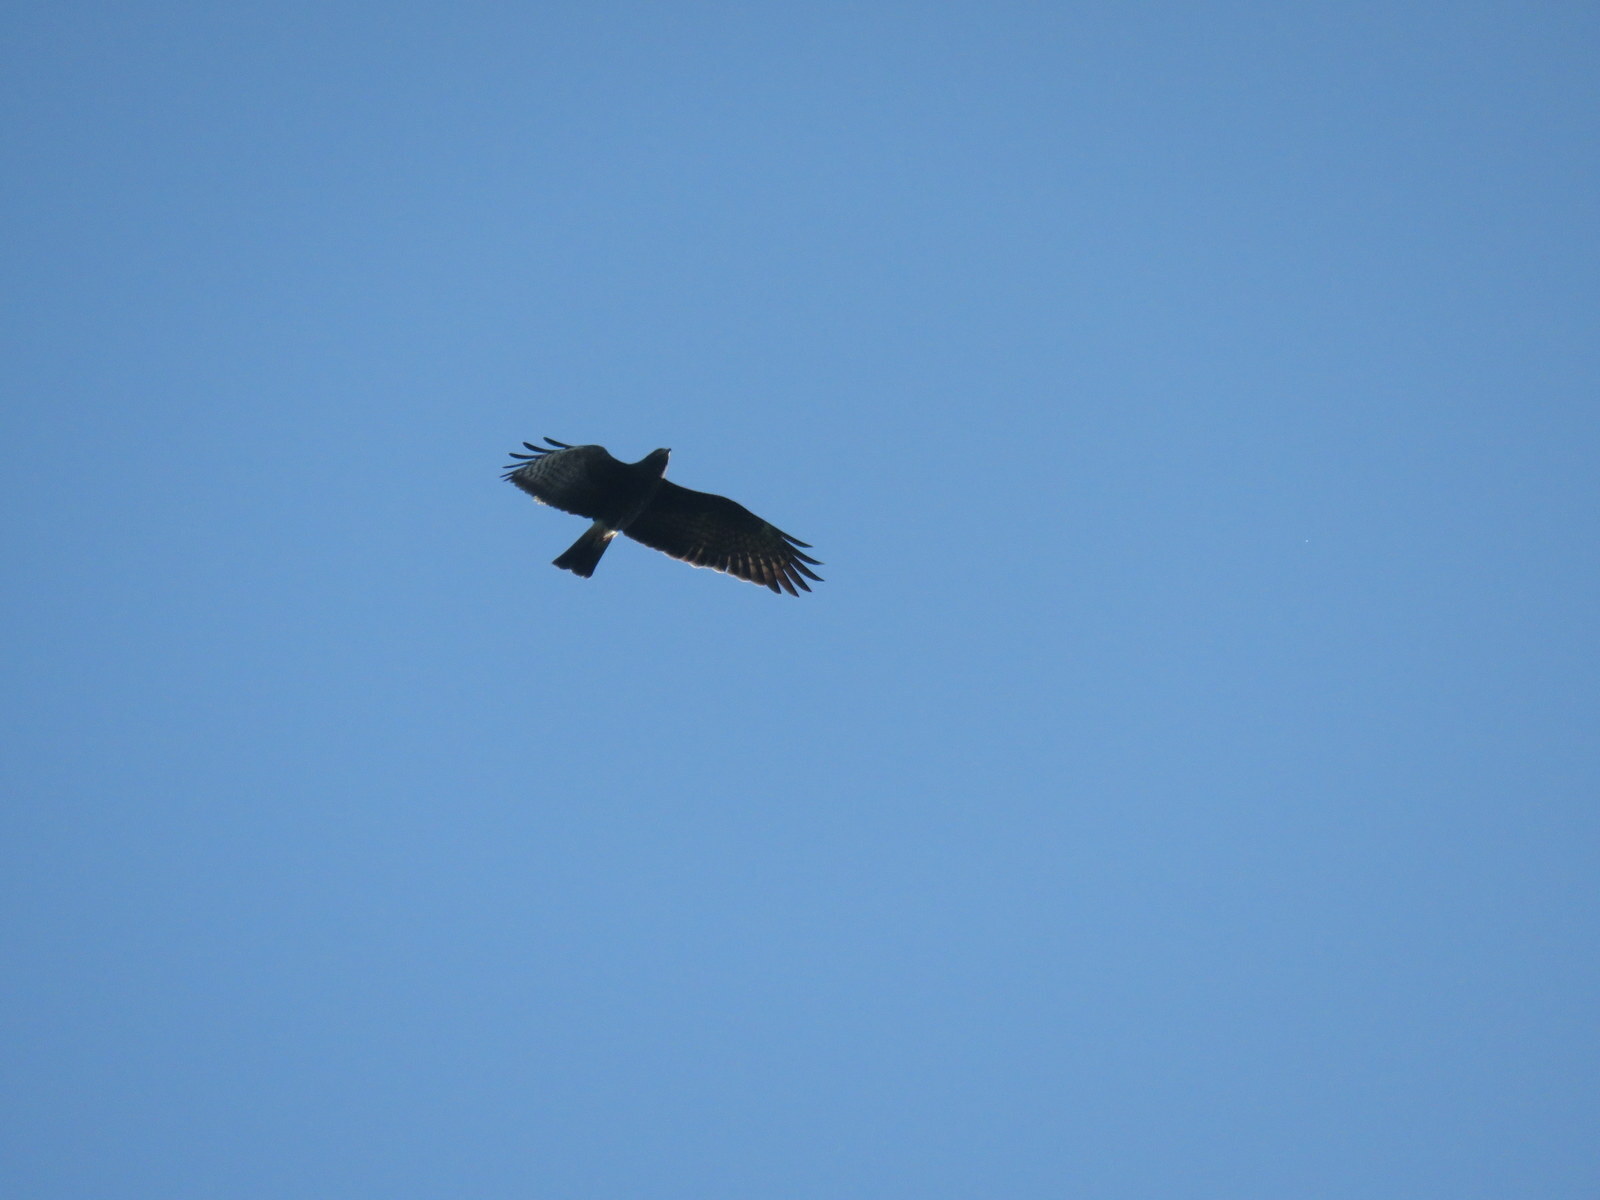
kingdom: Animalia
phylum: Chordata
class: Aves
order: Accipitriformes
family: Accipitridae
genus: Rostrhamus
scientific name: Rostrhamus sociabilis
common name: Snail kite
